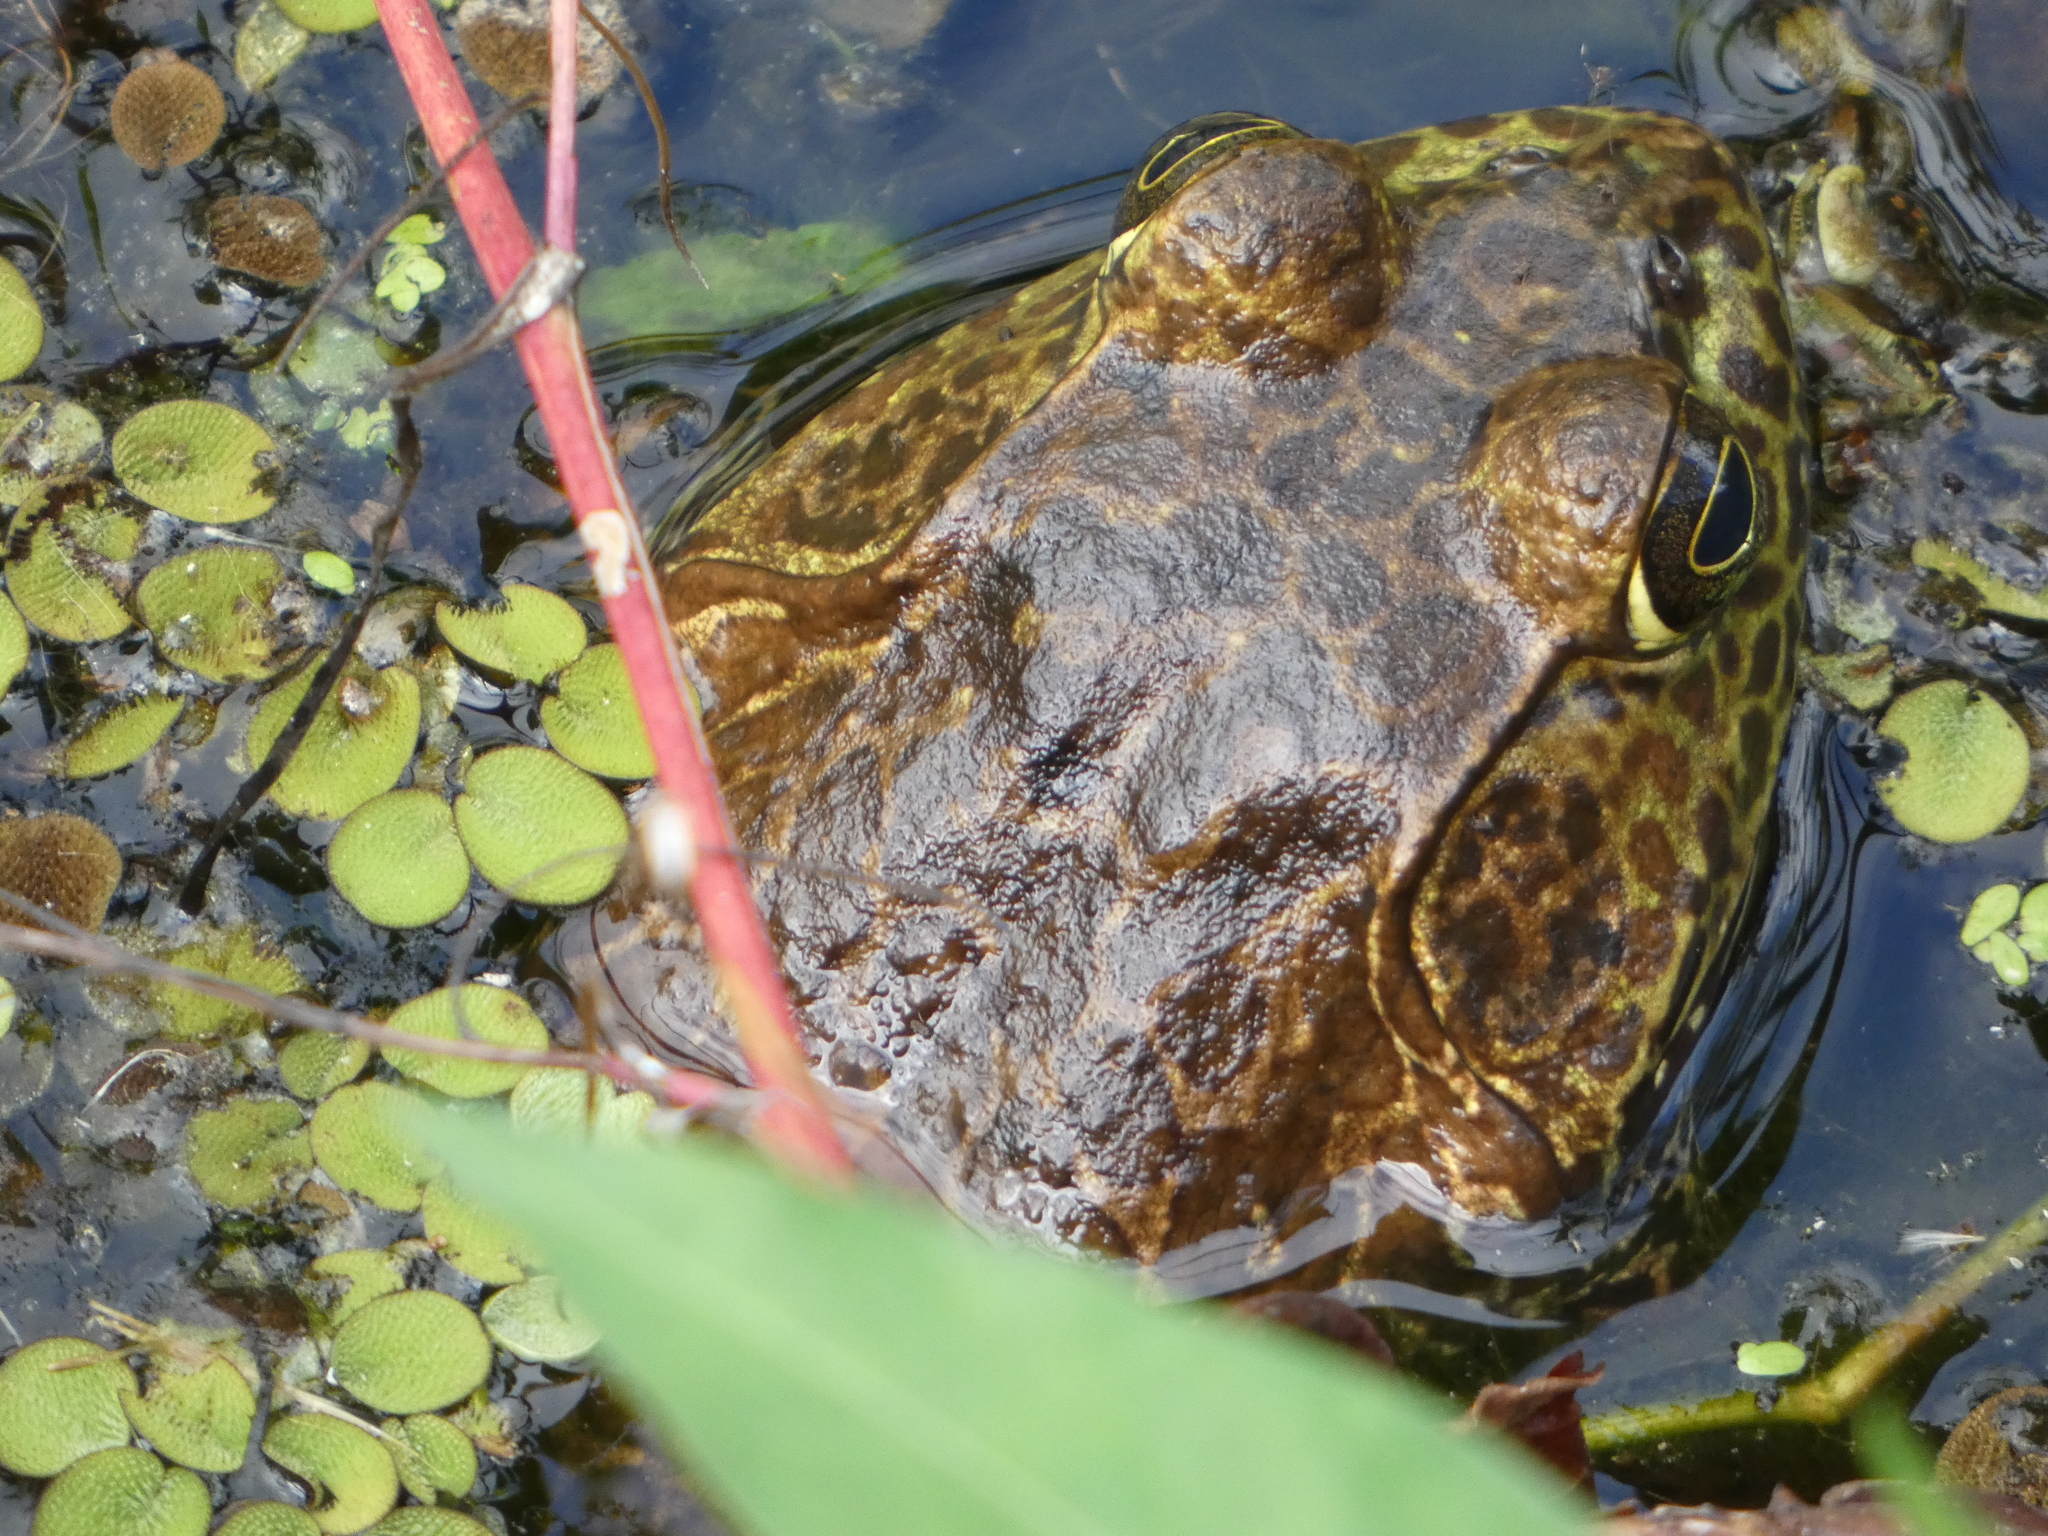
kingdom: Animalia
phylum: Chordata
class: Amphibia
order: Anura
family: Ranidae
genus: Lithobates
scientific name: Lithobates catesbeianus
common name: American bullfrog
